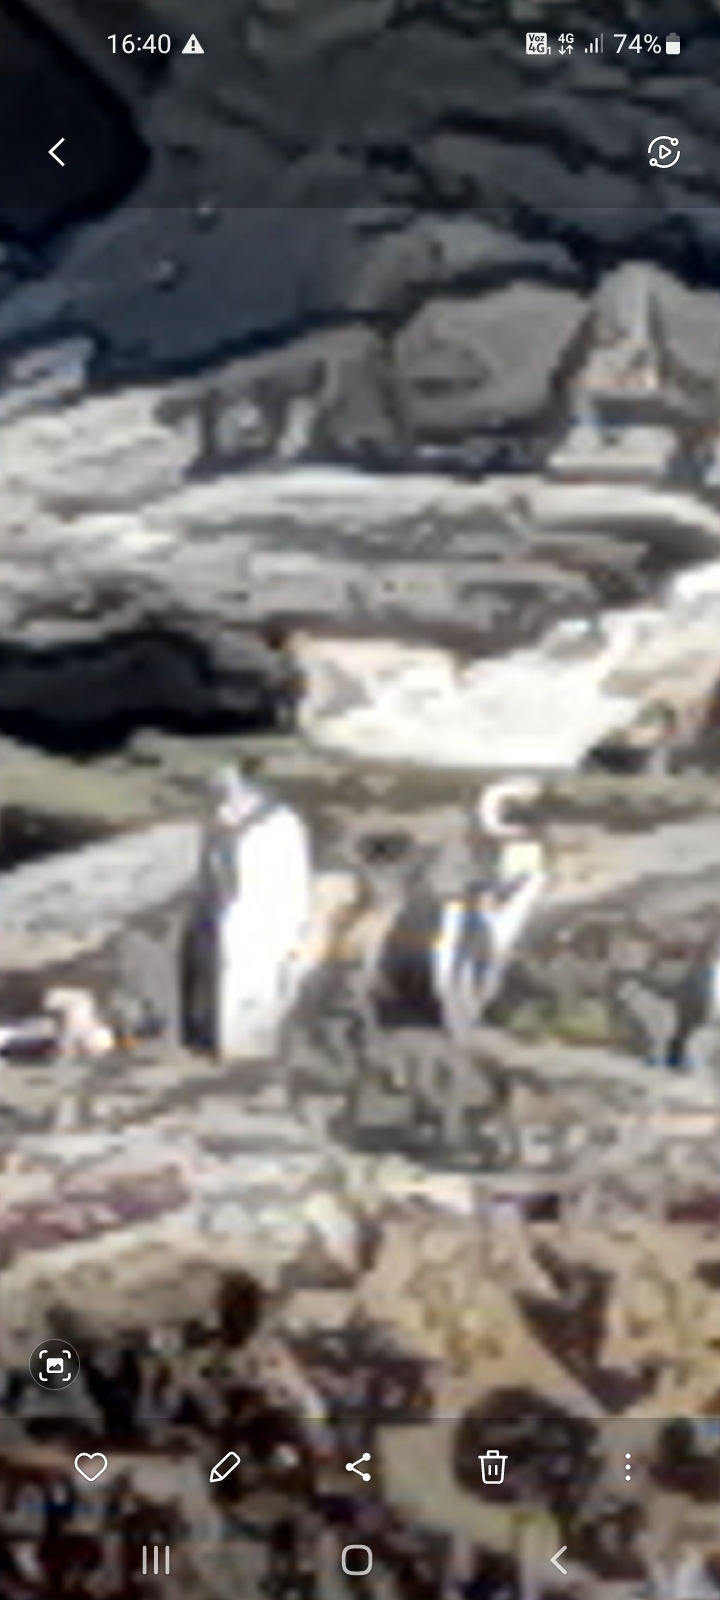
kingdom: Animalia
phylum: Chordata
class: Aves
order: Sphenisciformes
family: Spheniscidae
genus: Spheniscus
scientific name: Spheniscus humboldti
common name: Humboldt penguin
